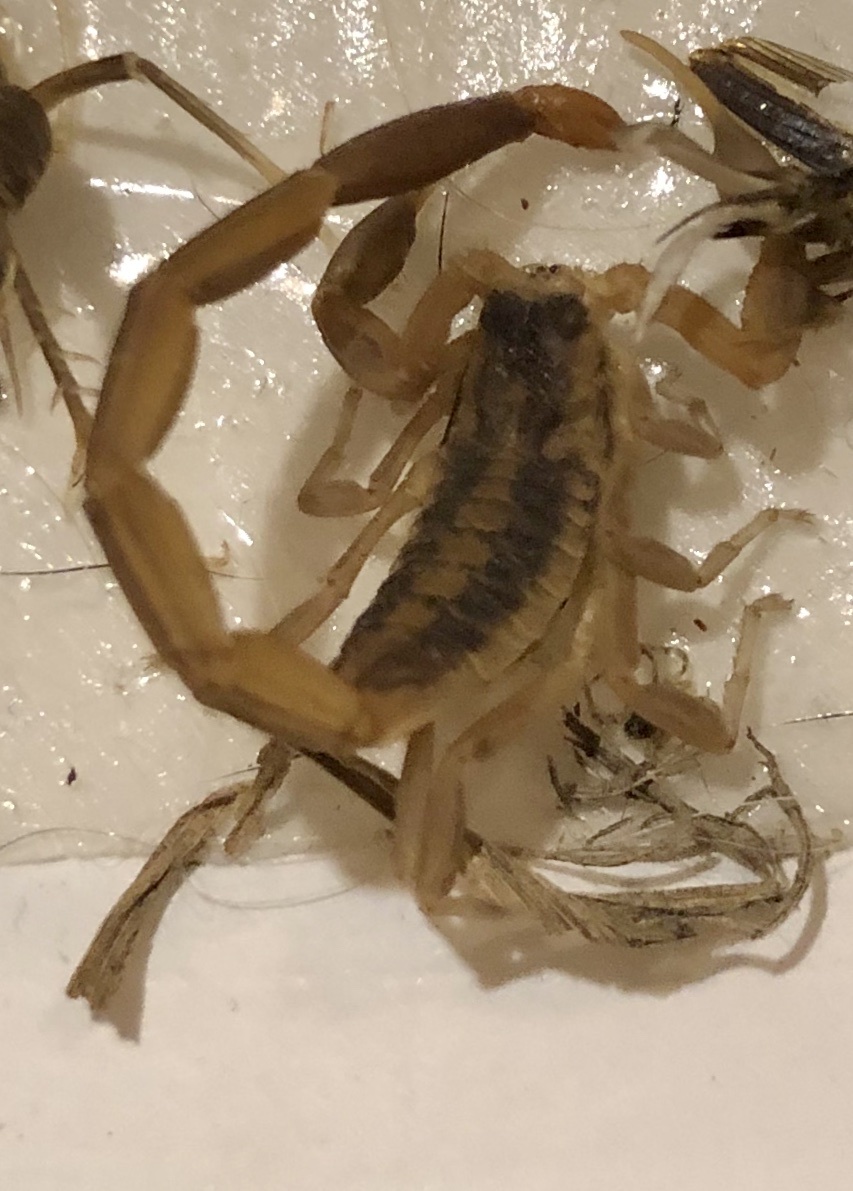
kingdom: Animalia
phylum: Arthropoda
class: Arachnida
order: Scorpiones
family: Buthidae
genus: Centruroides
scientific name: Centruroides vittatus
